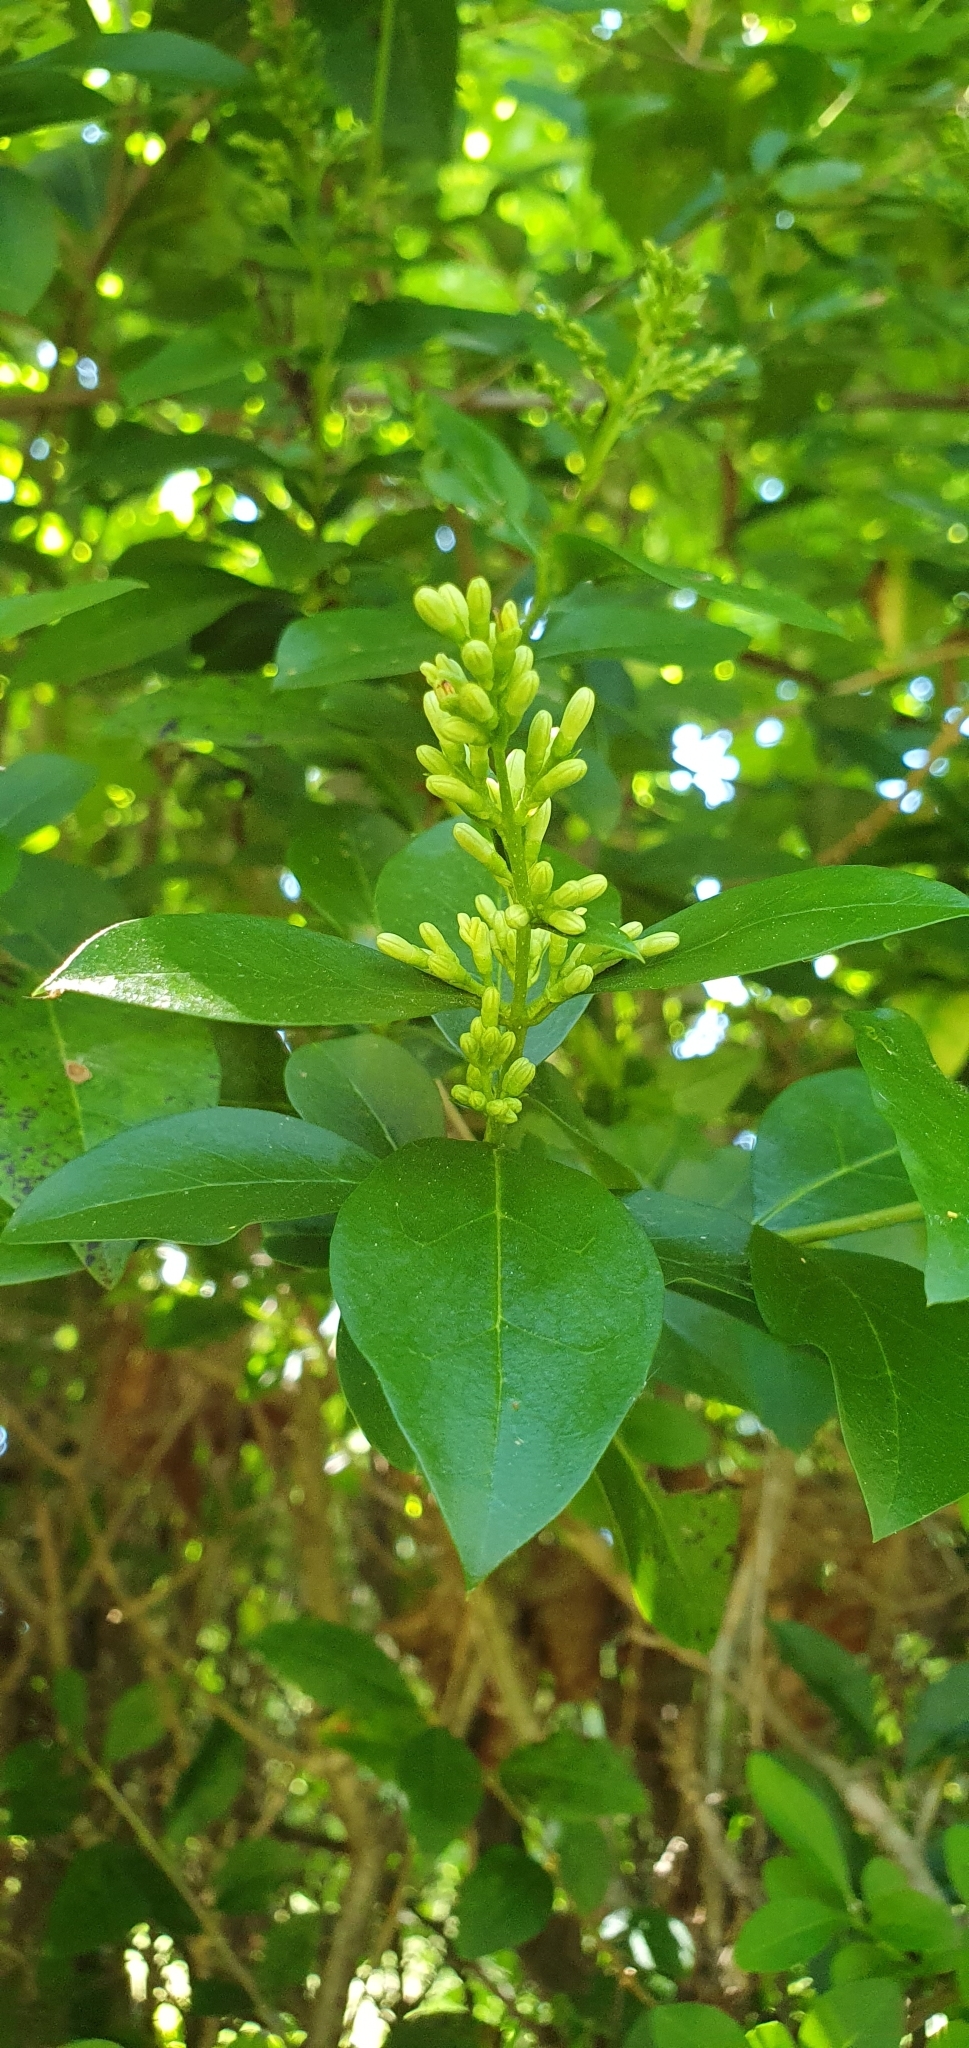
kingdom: Plantae
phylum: Tracheophyta
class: Magnoliopsida
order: Lamiales
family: Oleaceae
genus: Ligustrum
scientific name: Ligustrum obtusifolium
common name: Border privet
